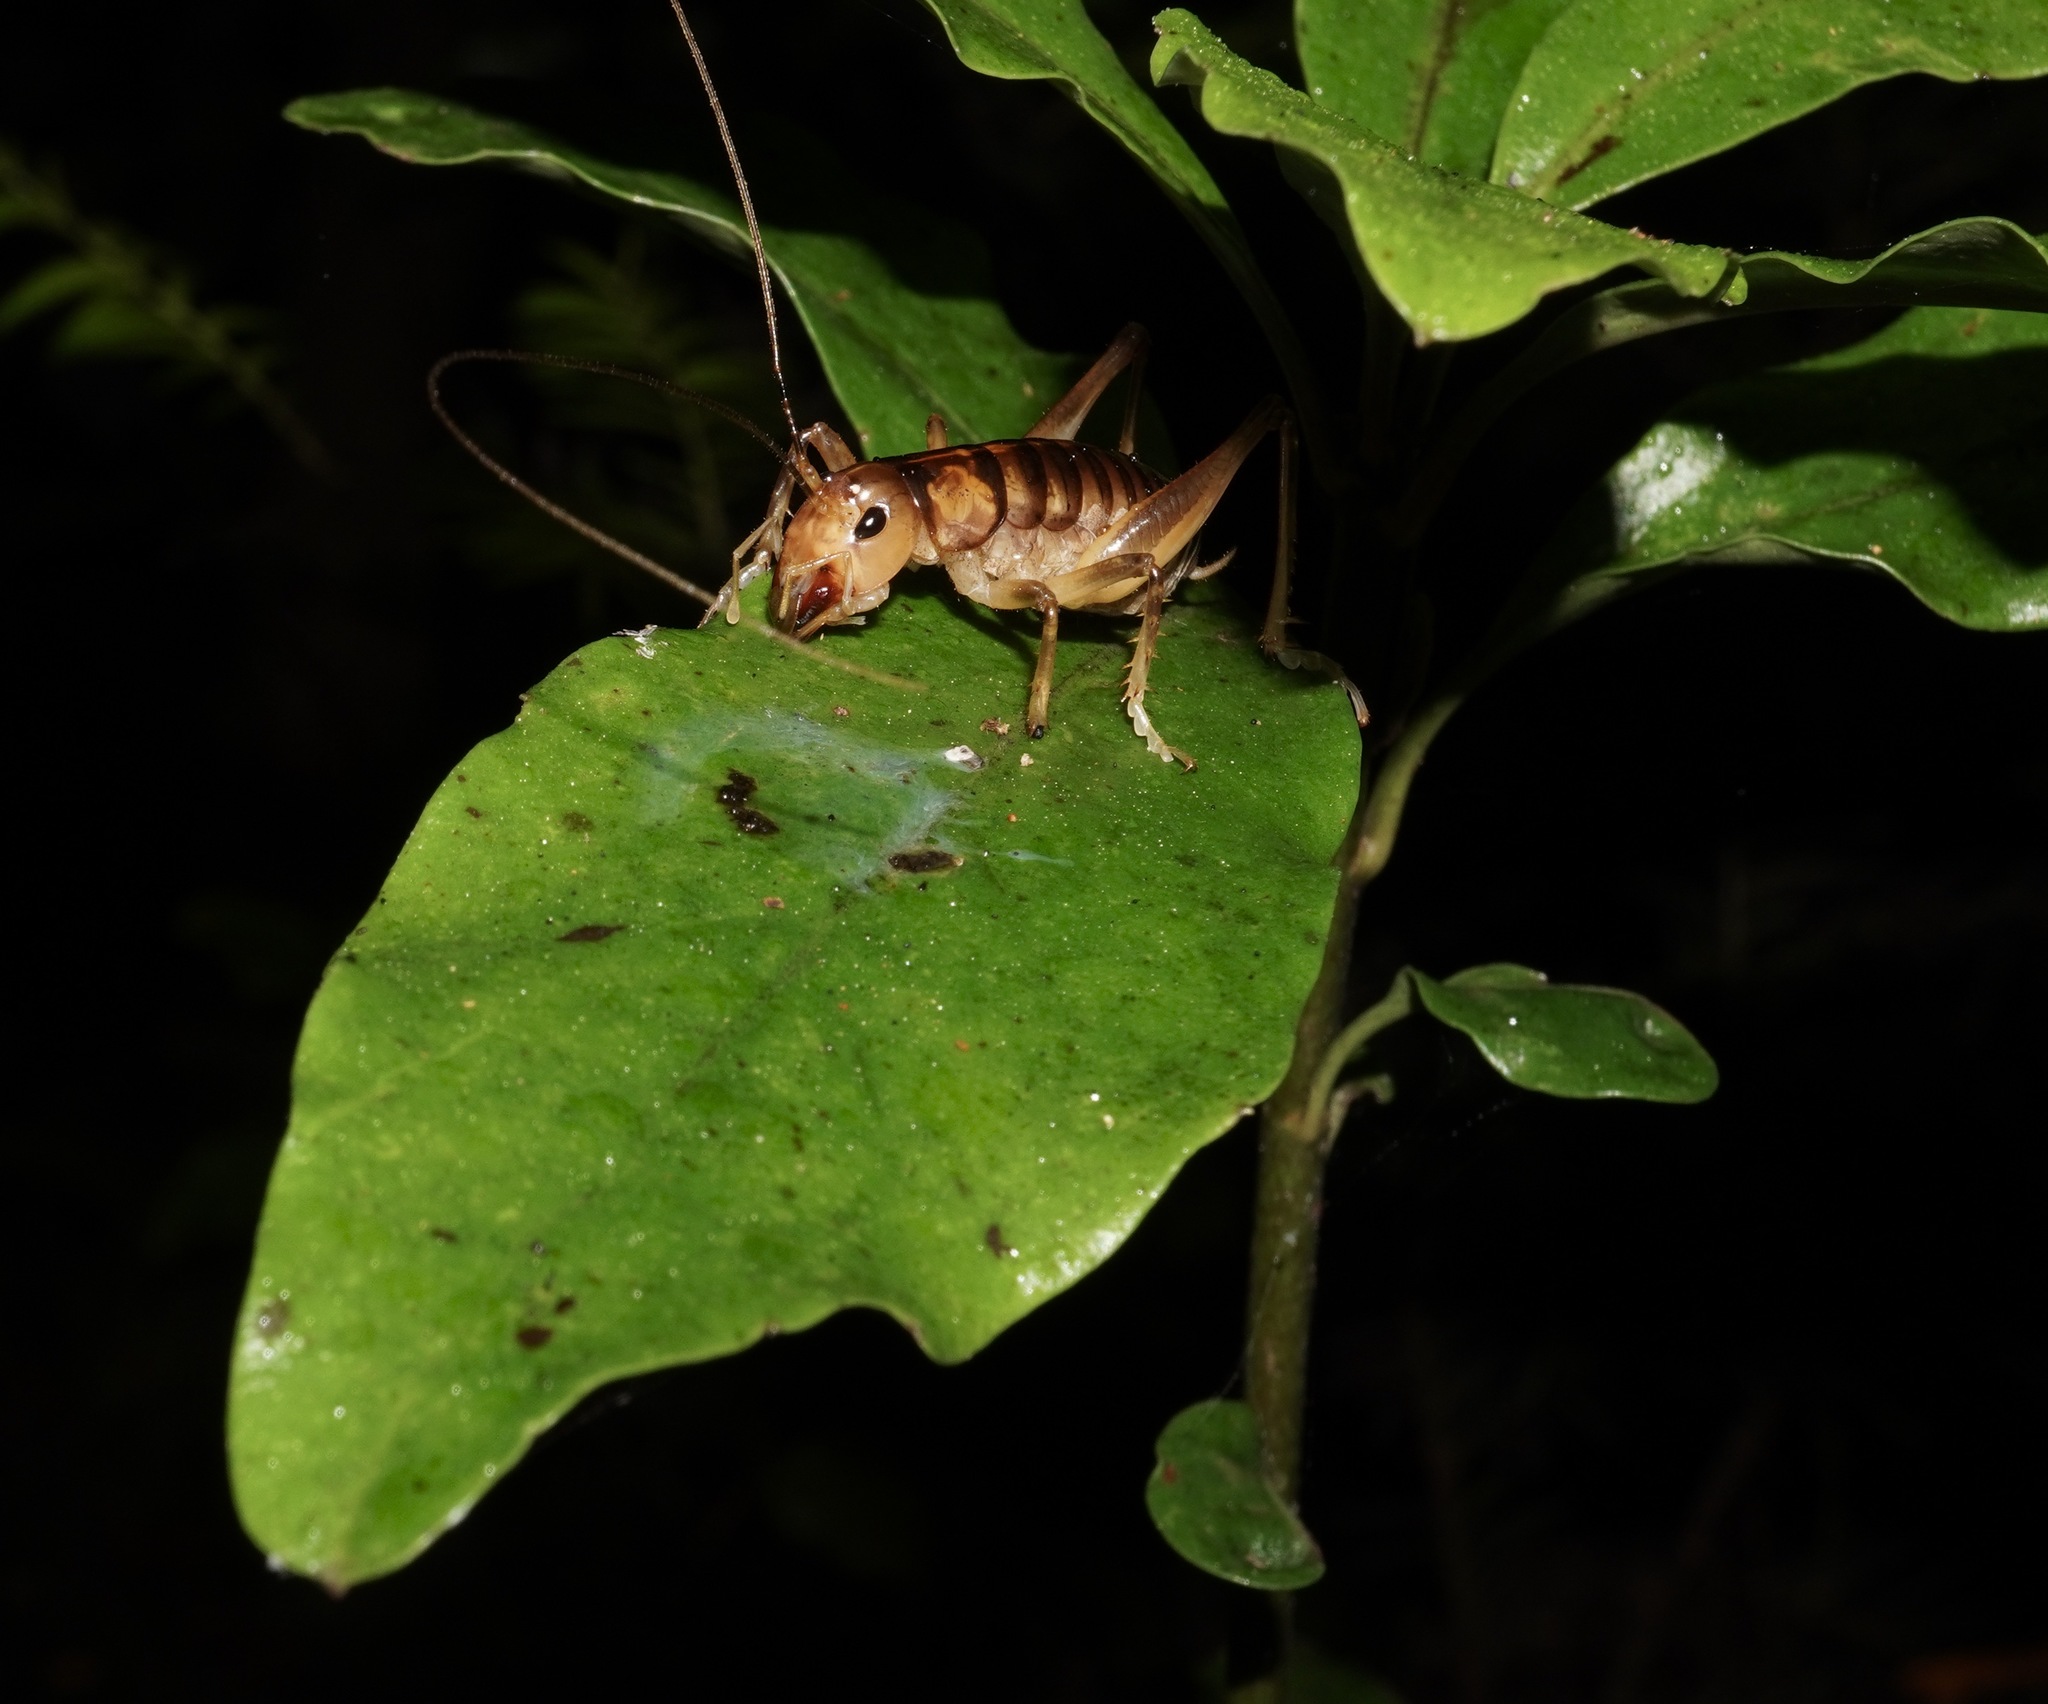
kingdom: Animalia
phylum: Arthropoda
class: Insecta
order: Orthoptera
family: Anostostomatidae
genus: Hemiandrus
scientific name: Hemiandrus pallitarsis
